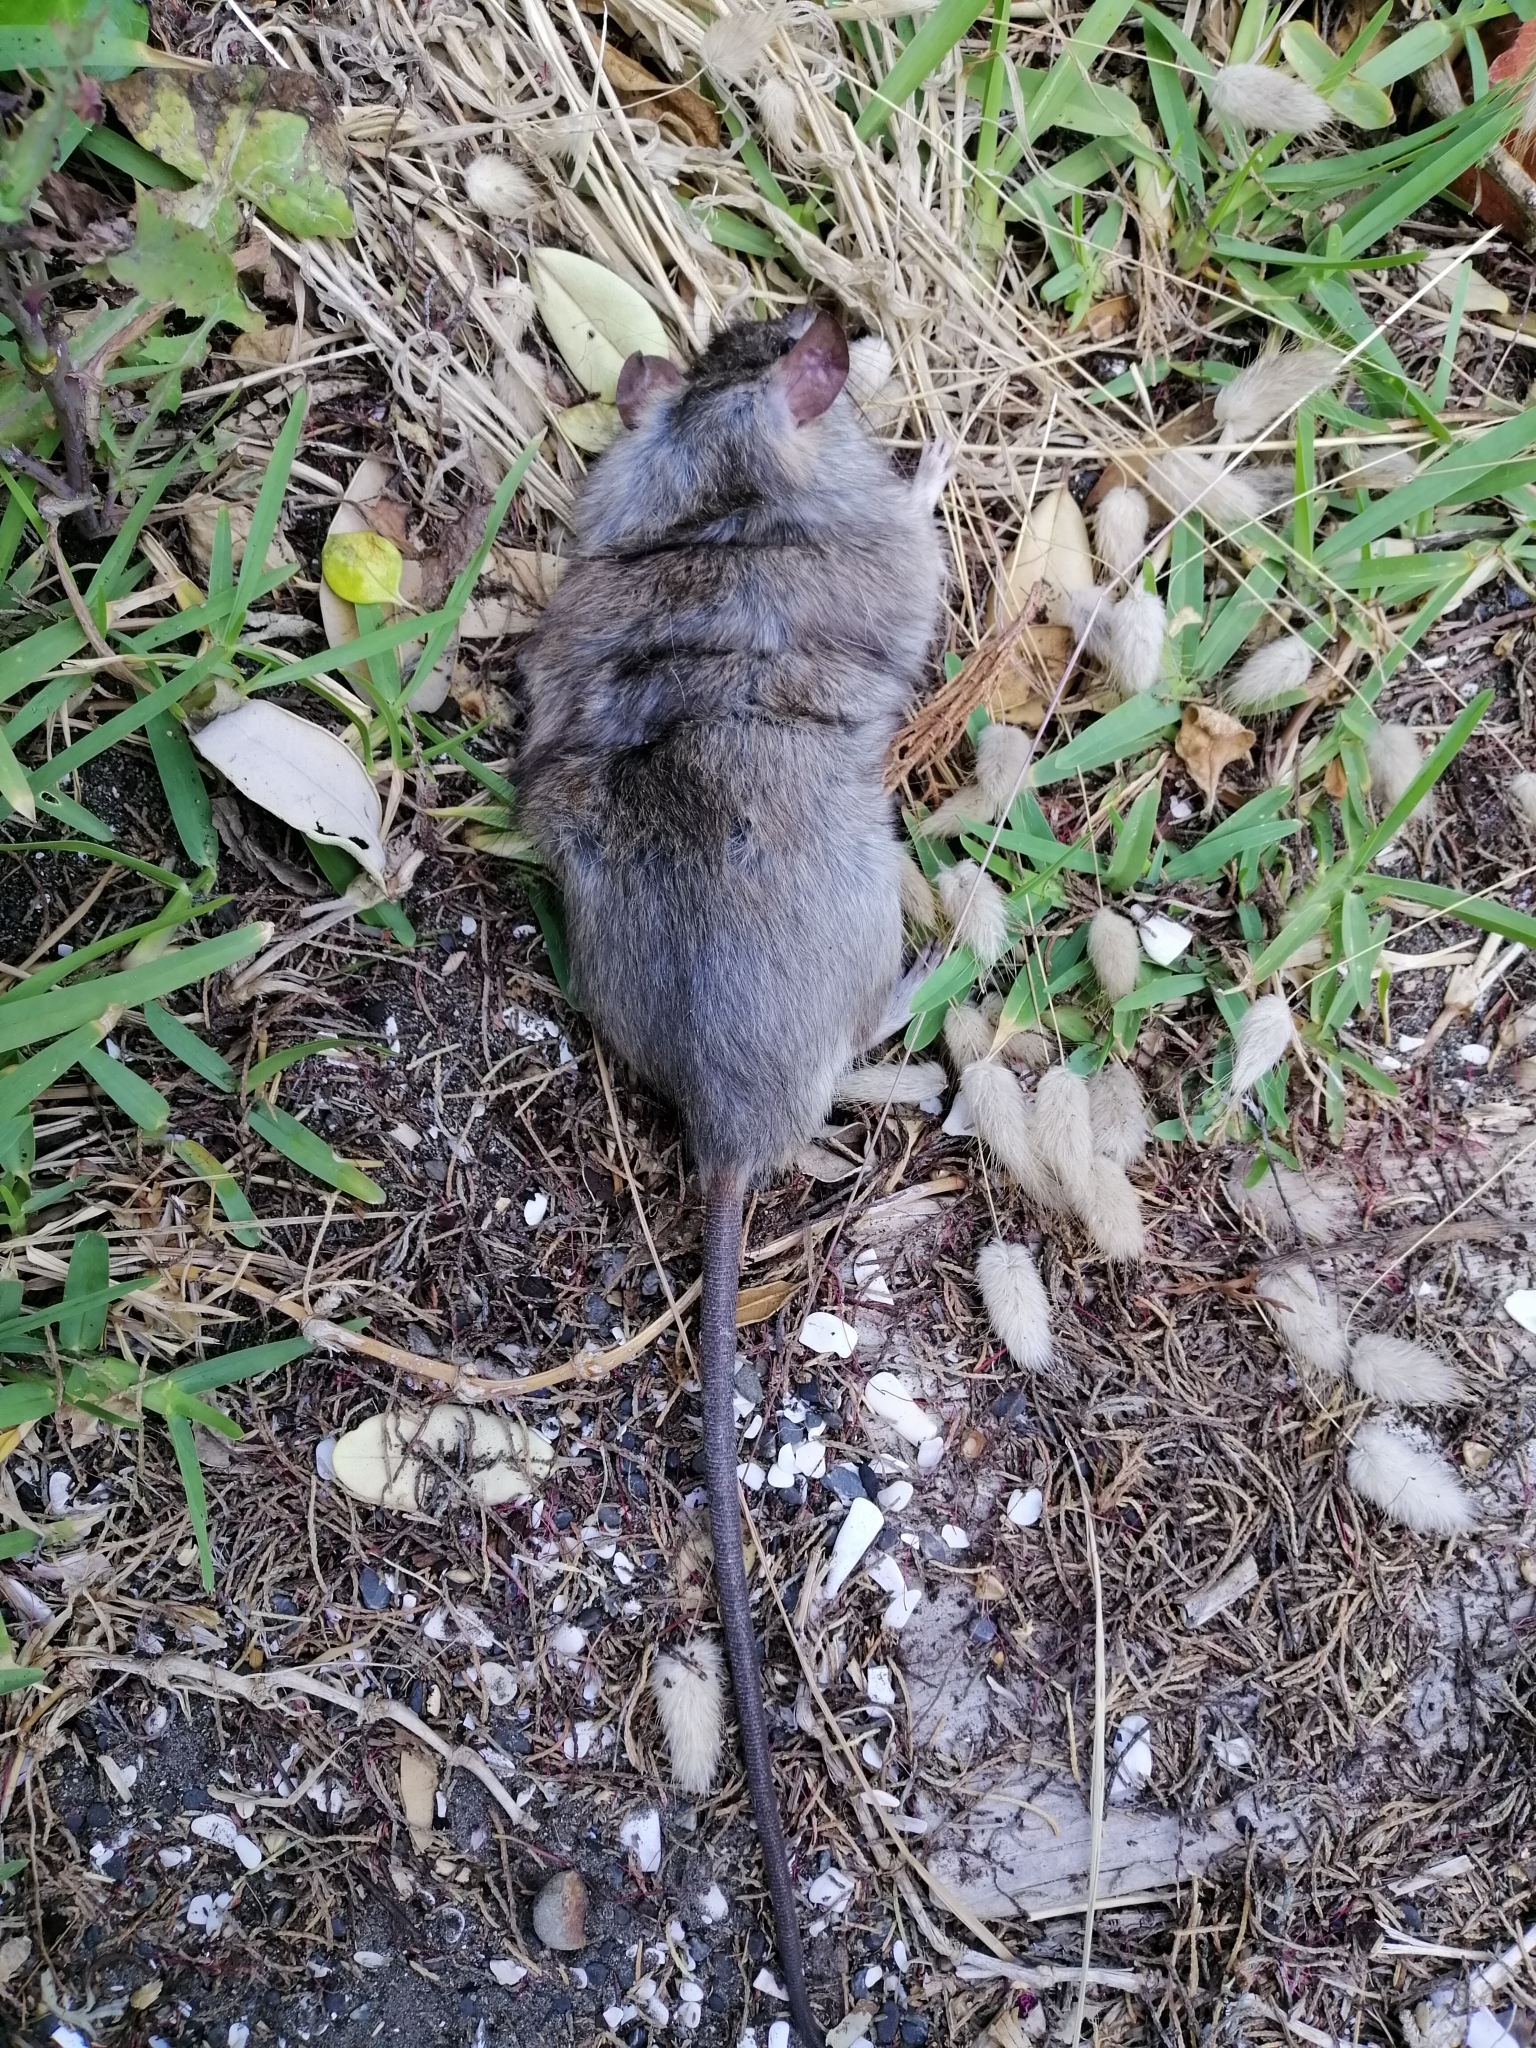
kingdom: Animalia
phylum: Chordata
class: Mammalia
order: Rodentia
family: Muridae
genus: Rattus
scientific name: Rattus rattus
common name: Black rat
